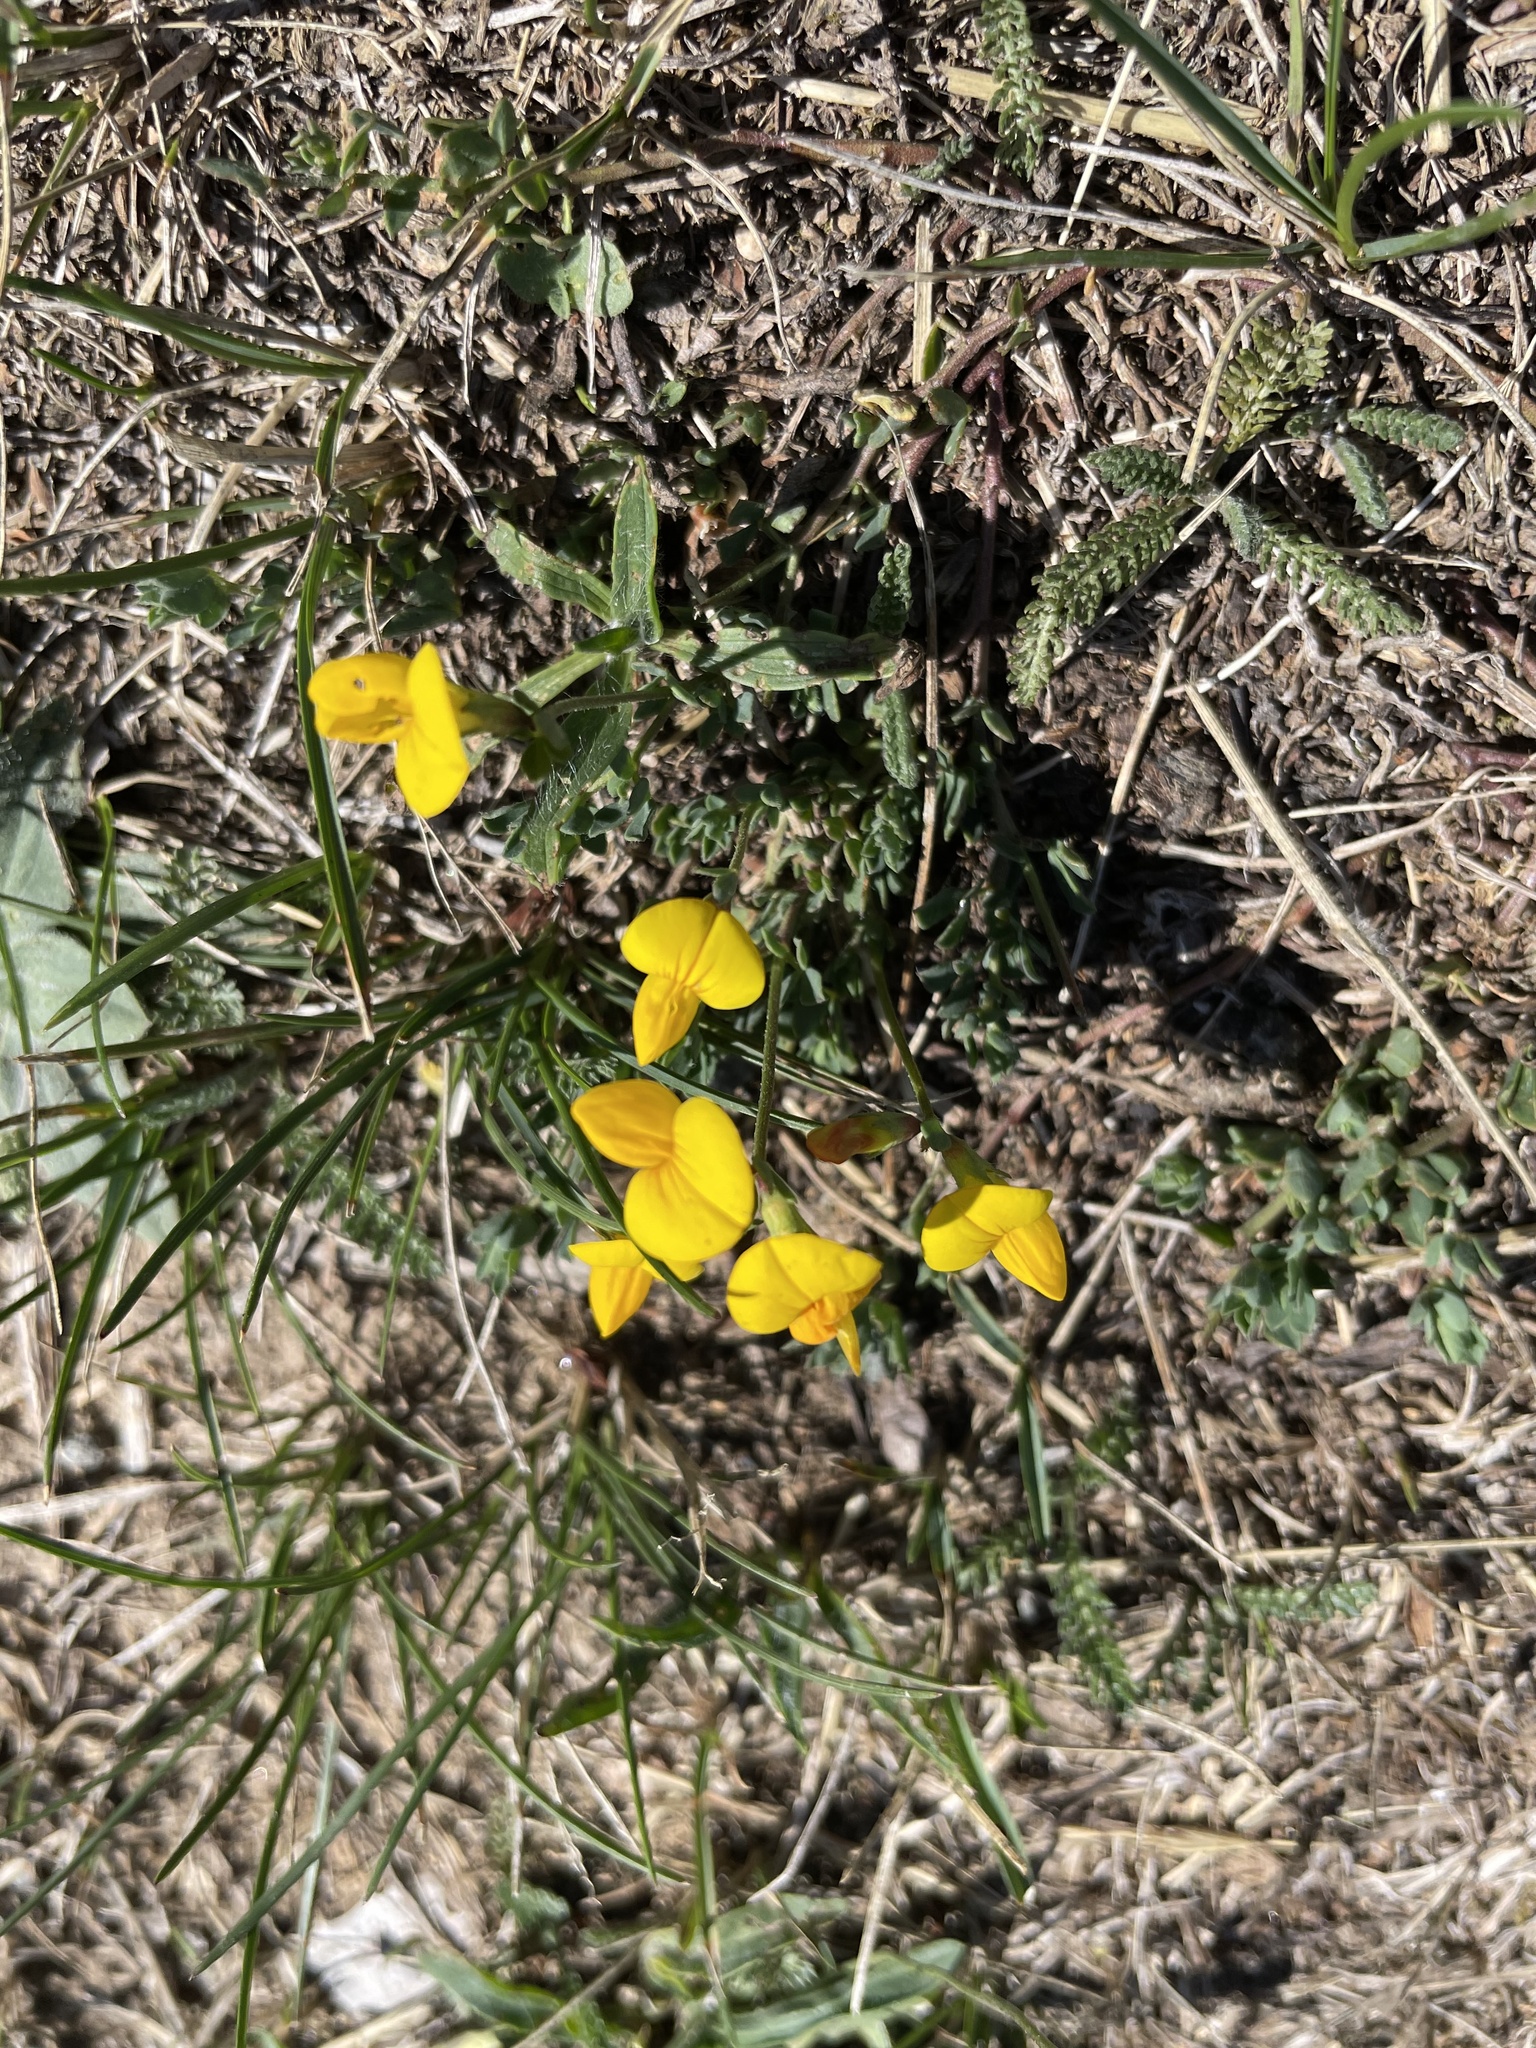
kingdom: Plantae
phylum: Tracheophyta
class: Magnoliopsida
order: Fabales
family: Fabaceae
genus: Lotus
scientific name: Lotus corniculatus
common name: Common bird's-foot-trefoil
